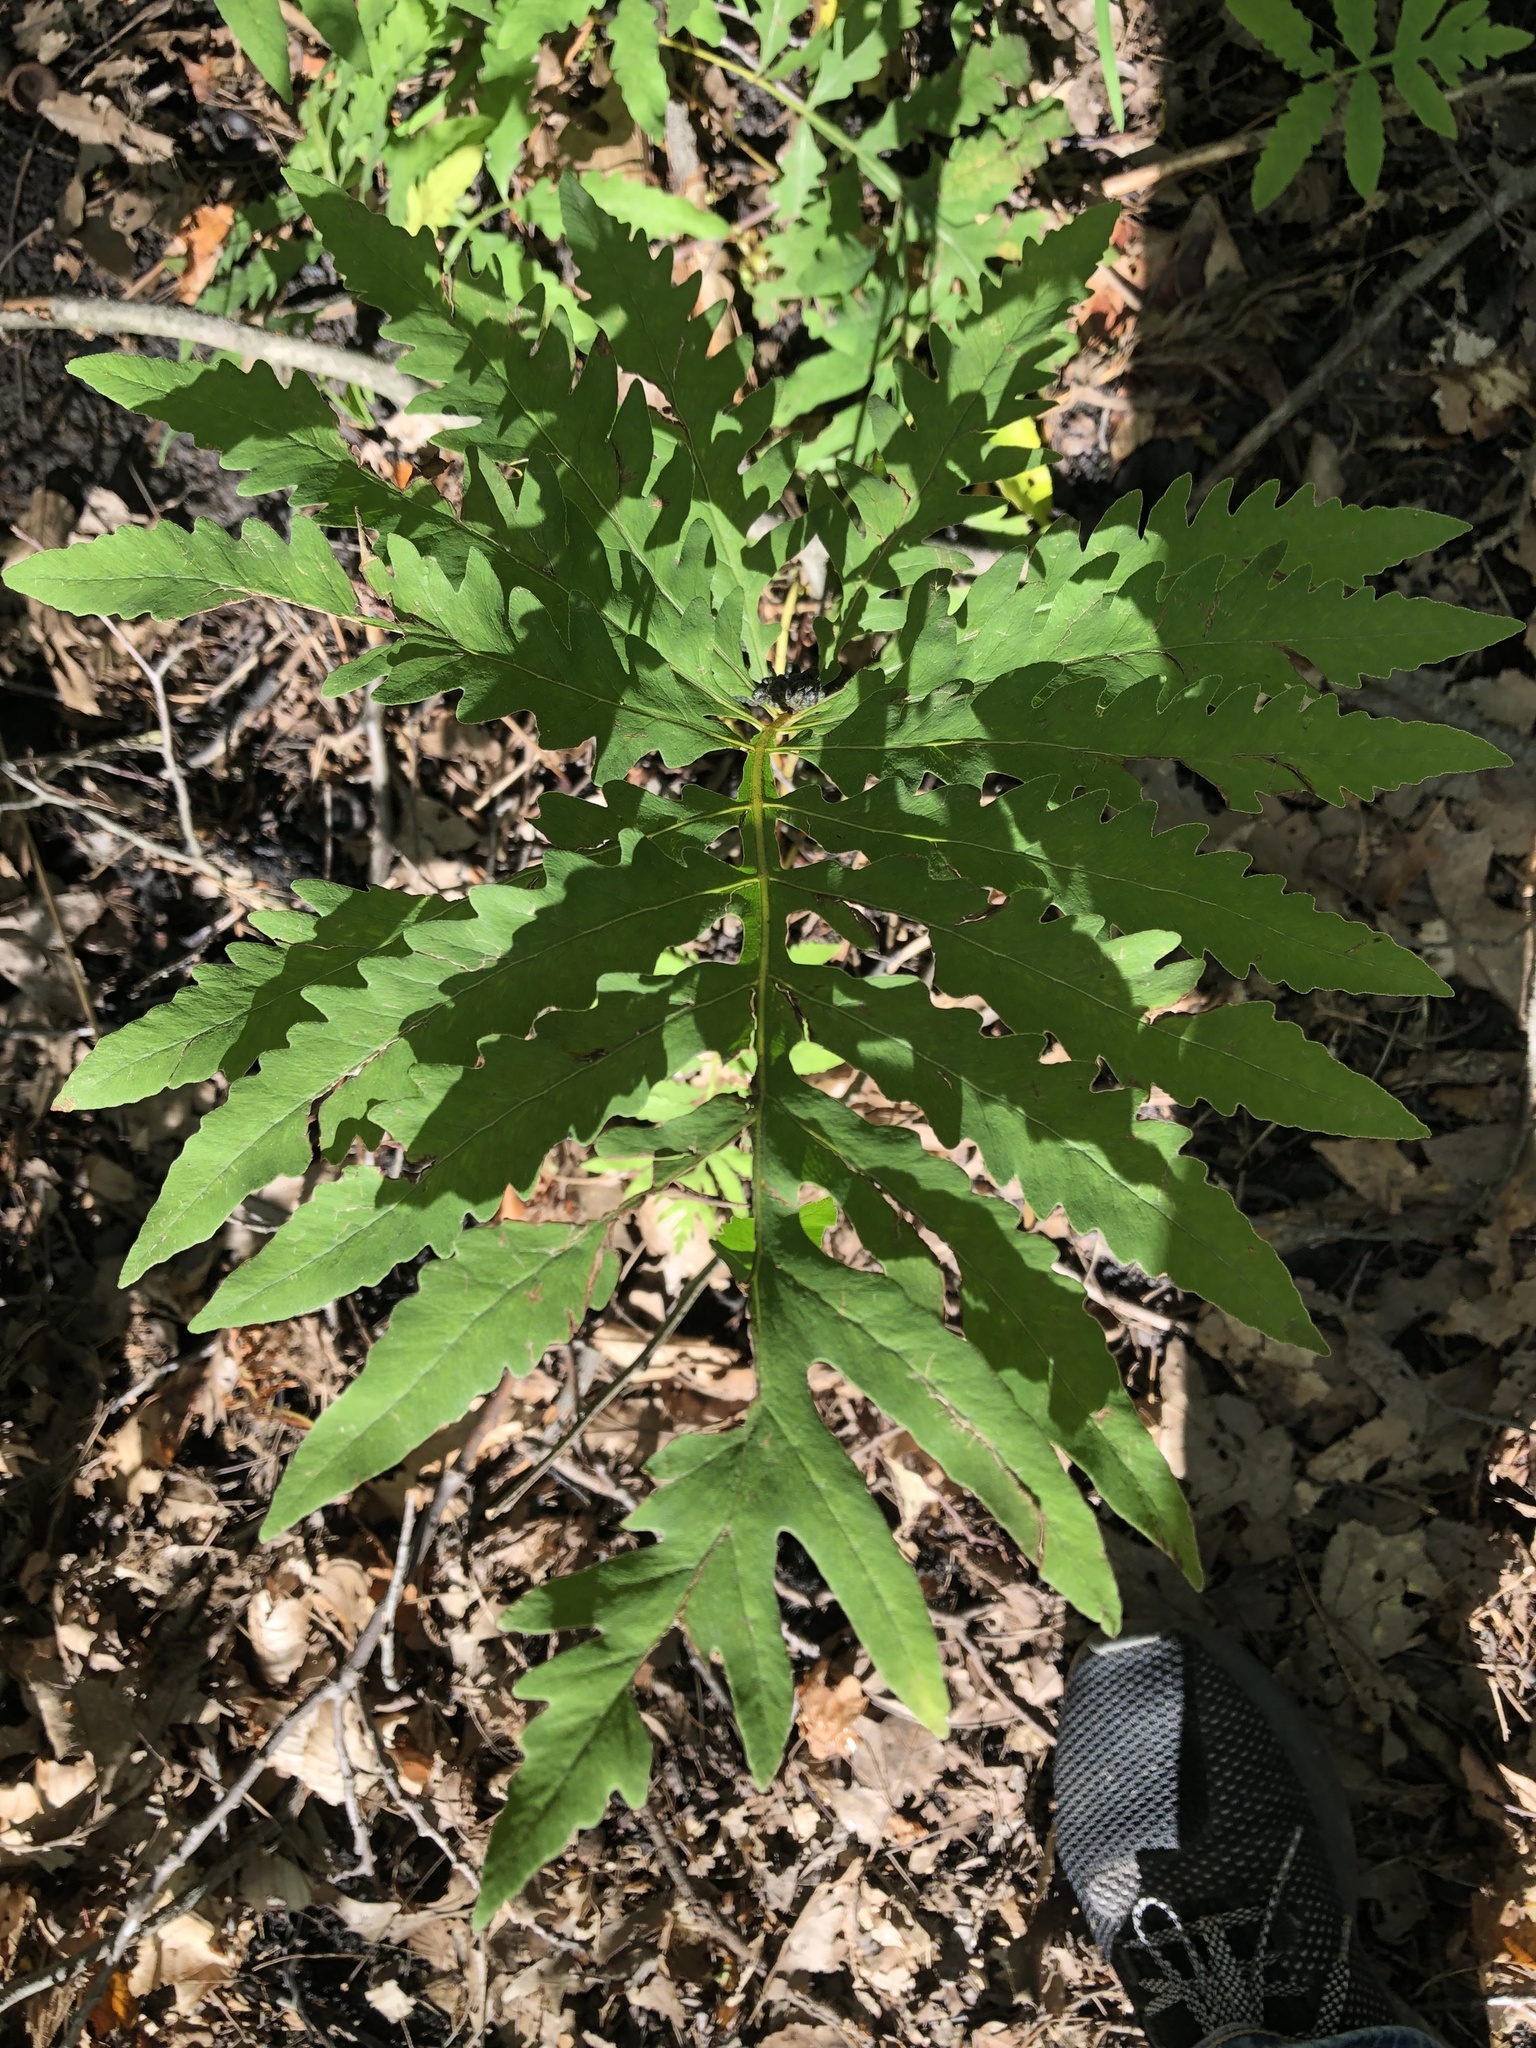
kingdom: Plantae
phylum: Tracheophyta
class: Polypodiopsida
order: Polypodiales
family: Onocleaceae
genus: Onoclea
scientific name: Onoclea sensibilis
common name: Sensitive fern
